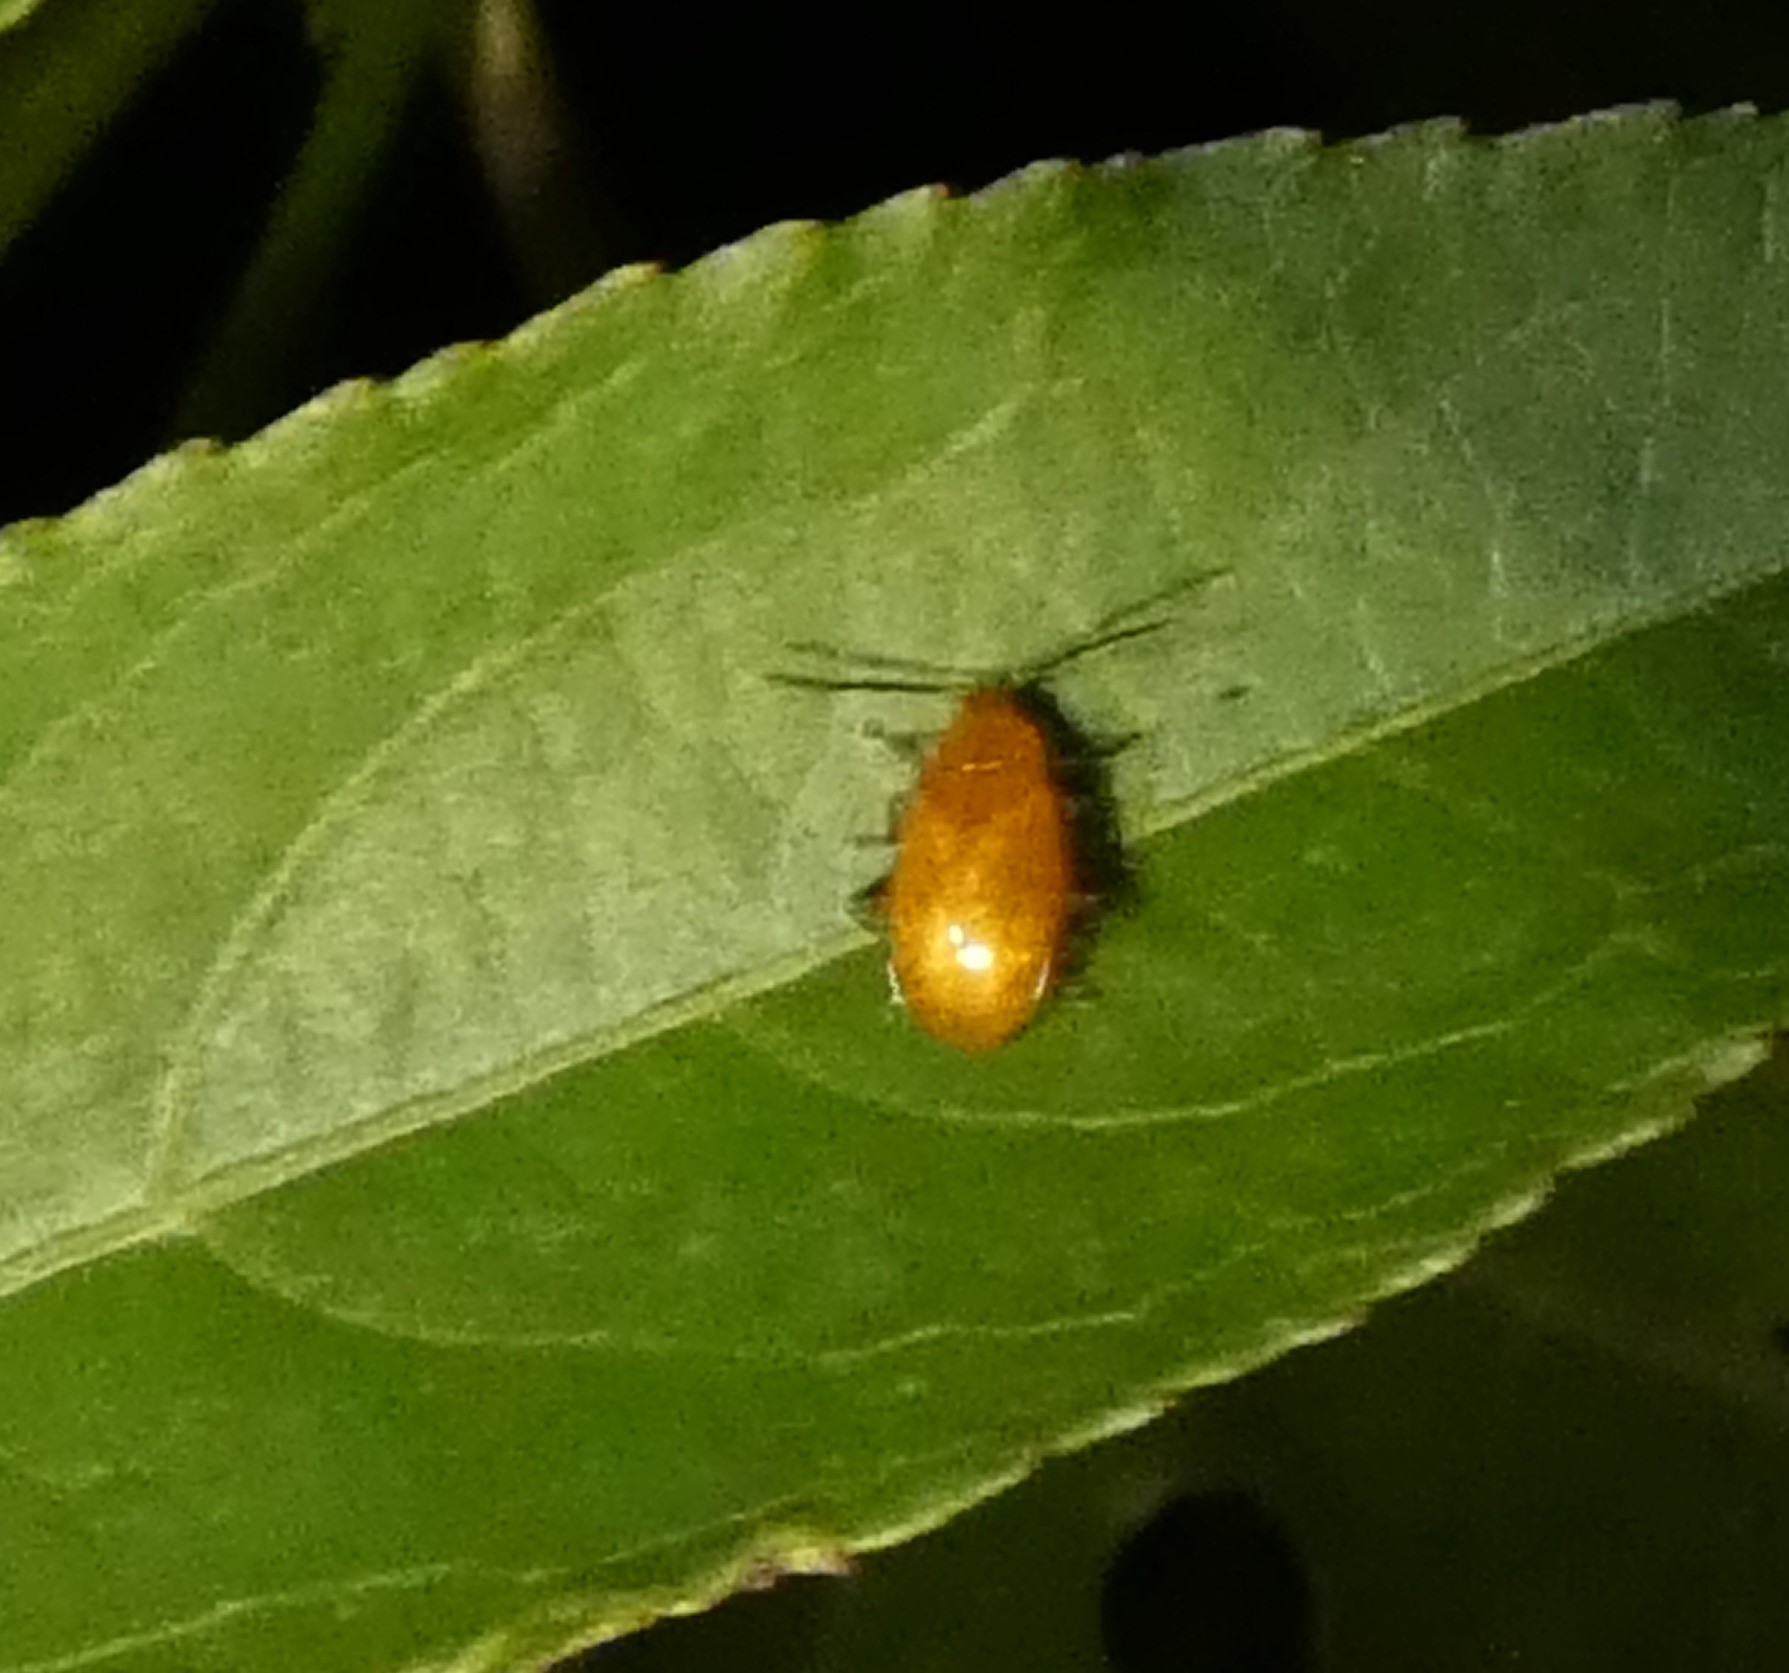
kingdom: Animalia
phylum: Arthropoda
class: Insecta
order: Coleoptera
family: Chrysomelidae
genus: Parchicola
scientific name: Parchicola tibialis
